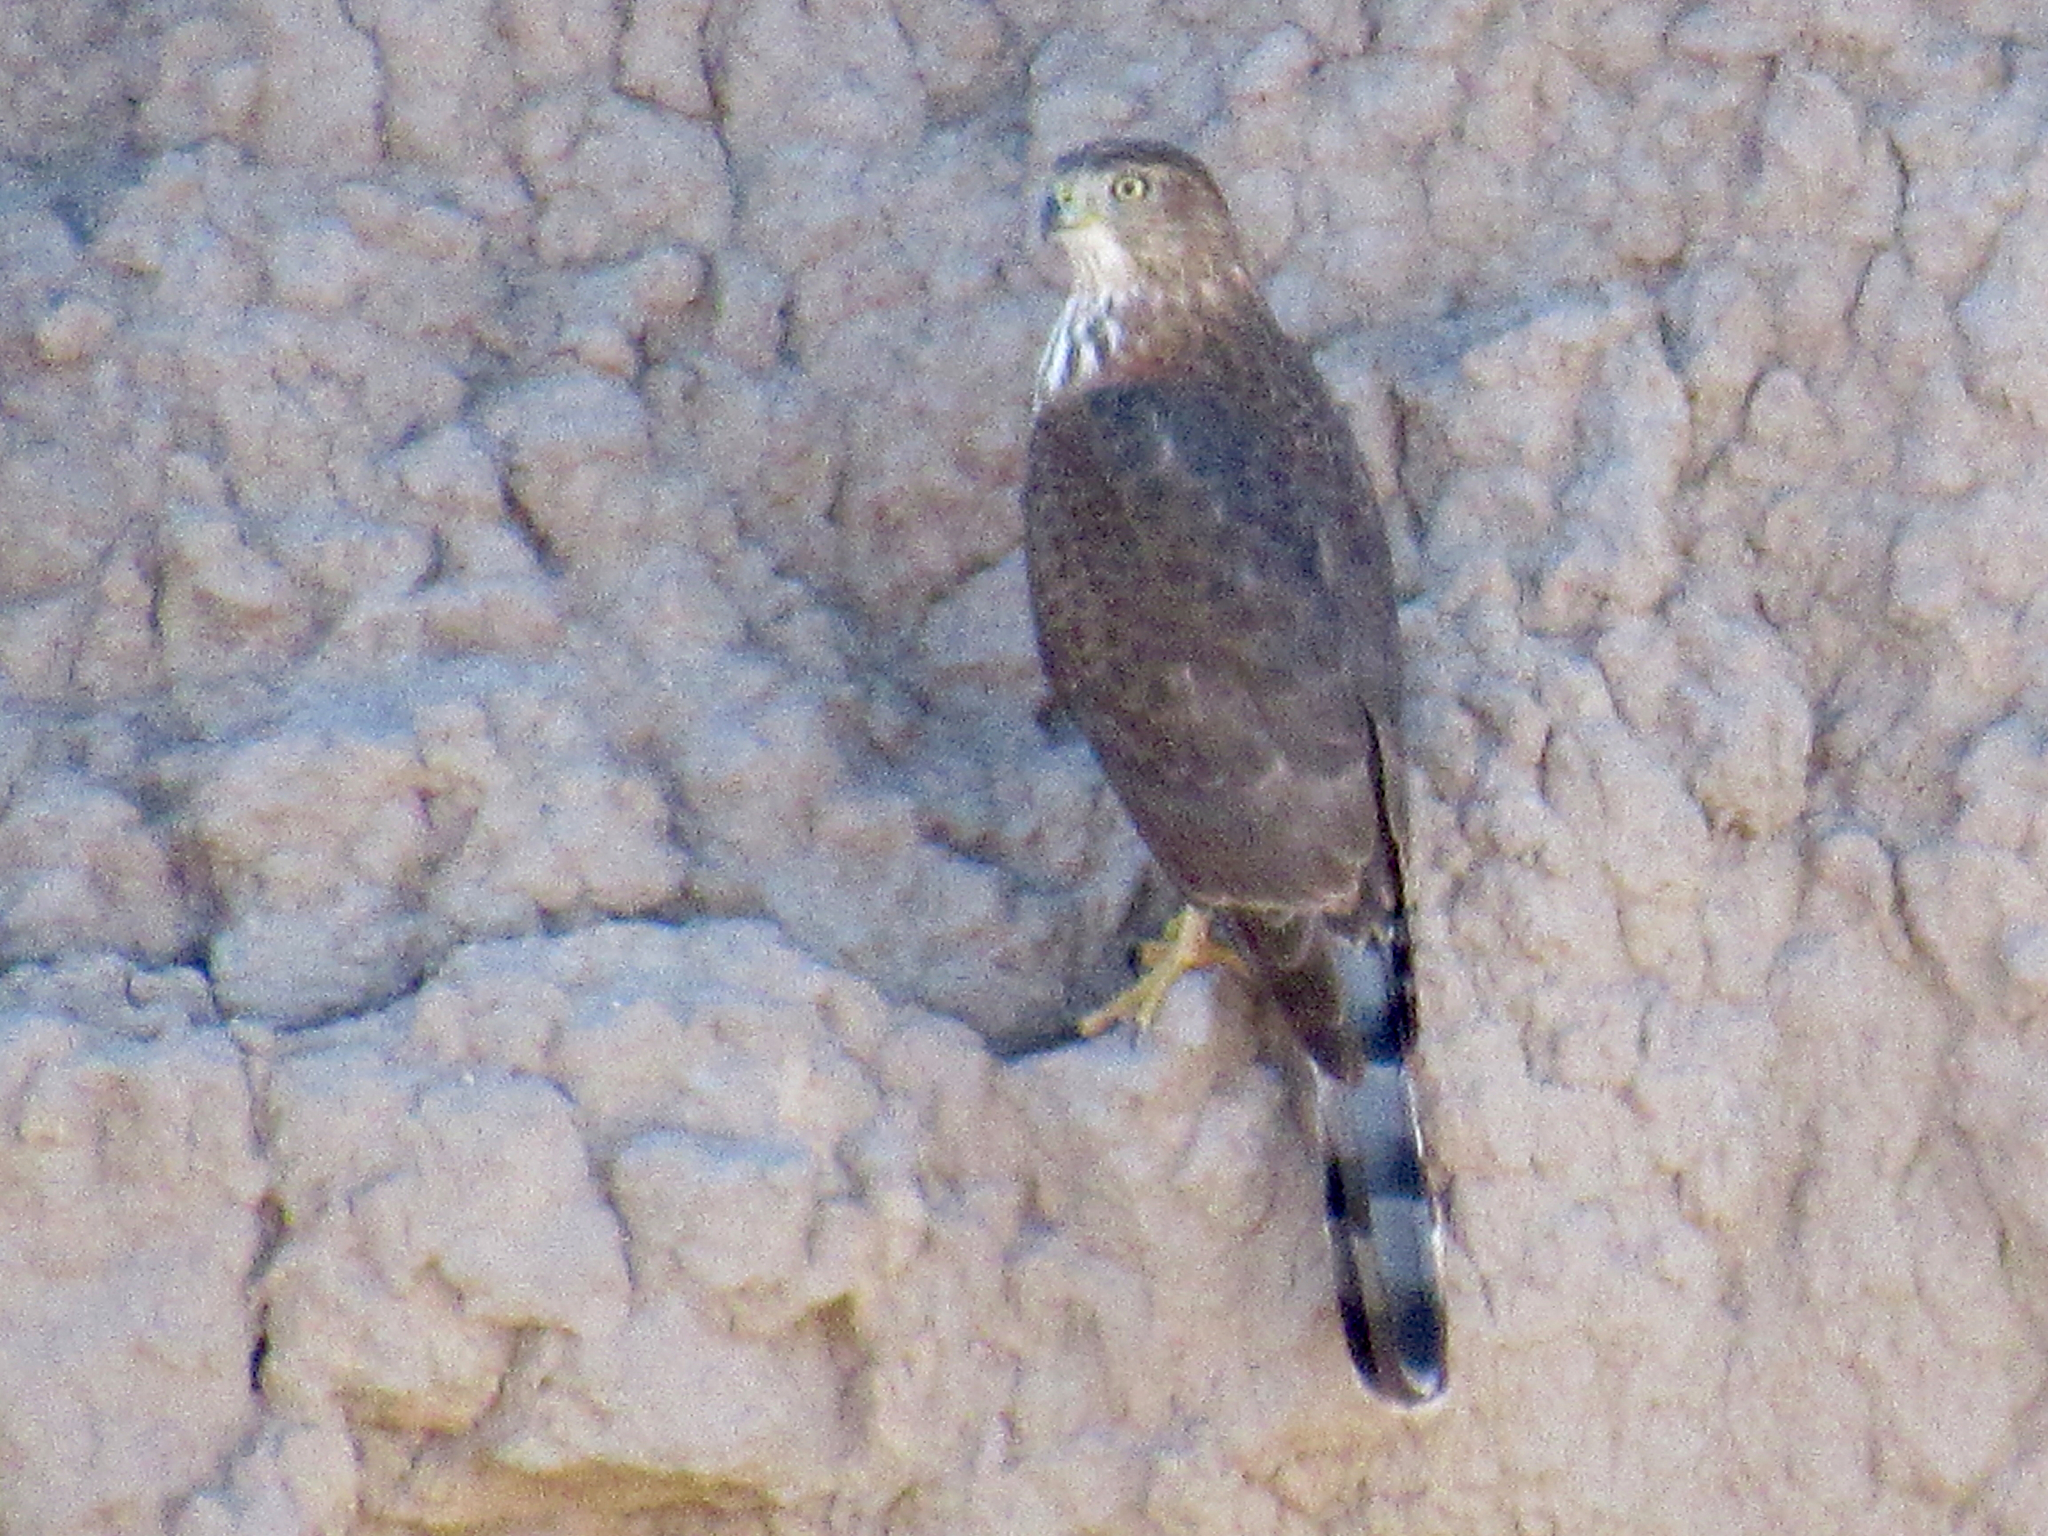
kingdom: Animalia
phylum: Chordata
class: Aves
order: Accipitriformes
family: Accipitridae
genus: Accipiter
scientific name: Accipiter cooperii
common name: Cooper's hawk
